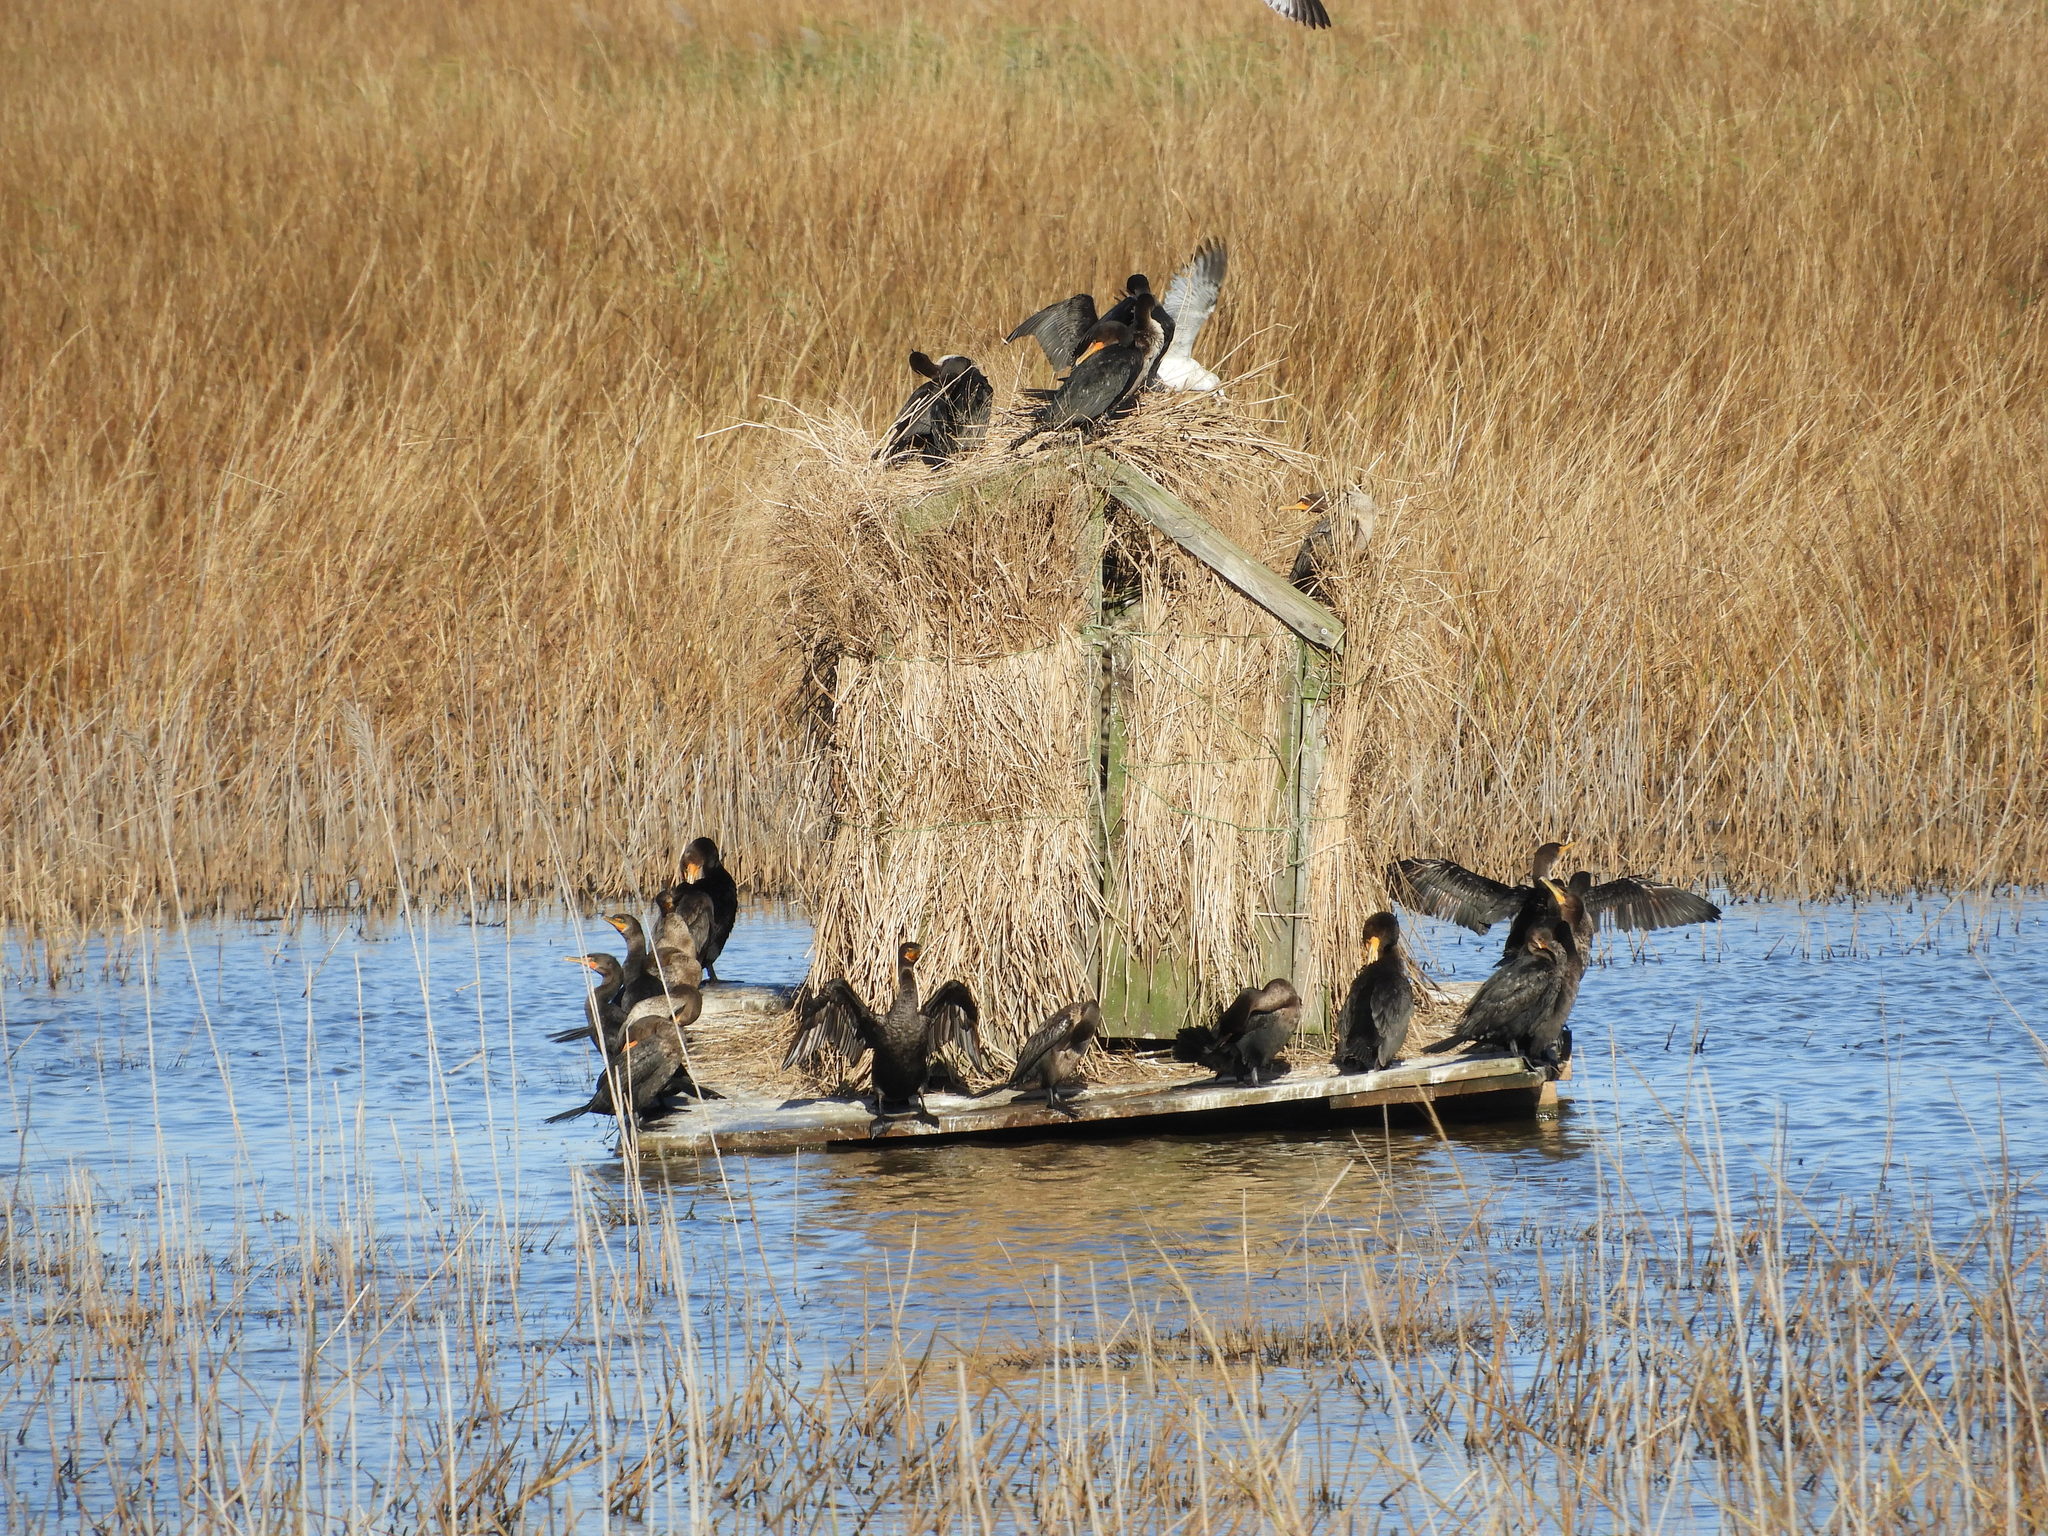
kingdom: Animalia
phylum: Chordata
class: Aves
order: Suliformes
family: Phalacrocoracidae
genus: Phalacrocorax
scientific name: Phalacrocorax auritus
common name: Double-crested cormorant
